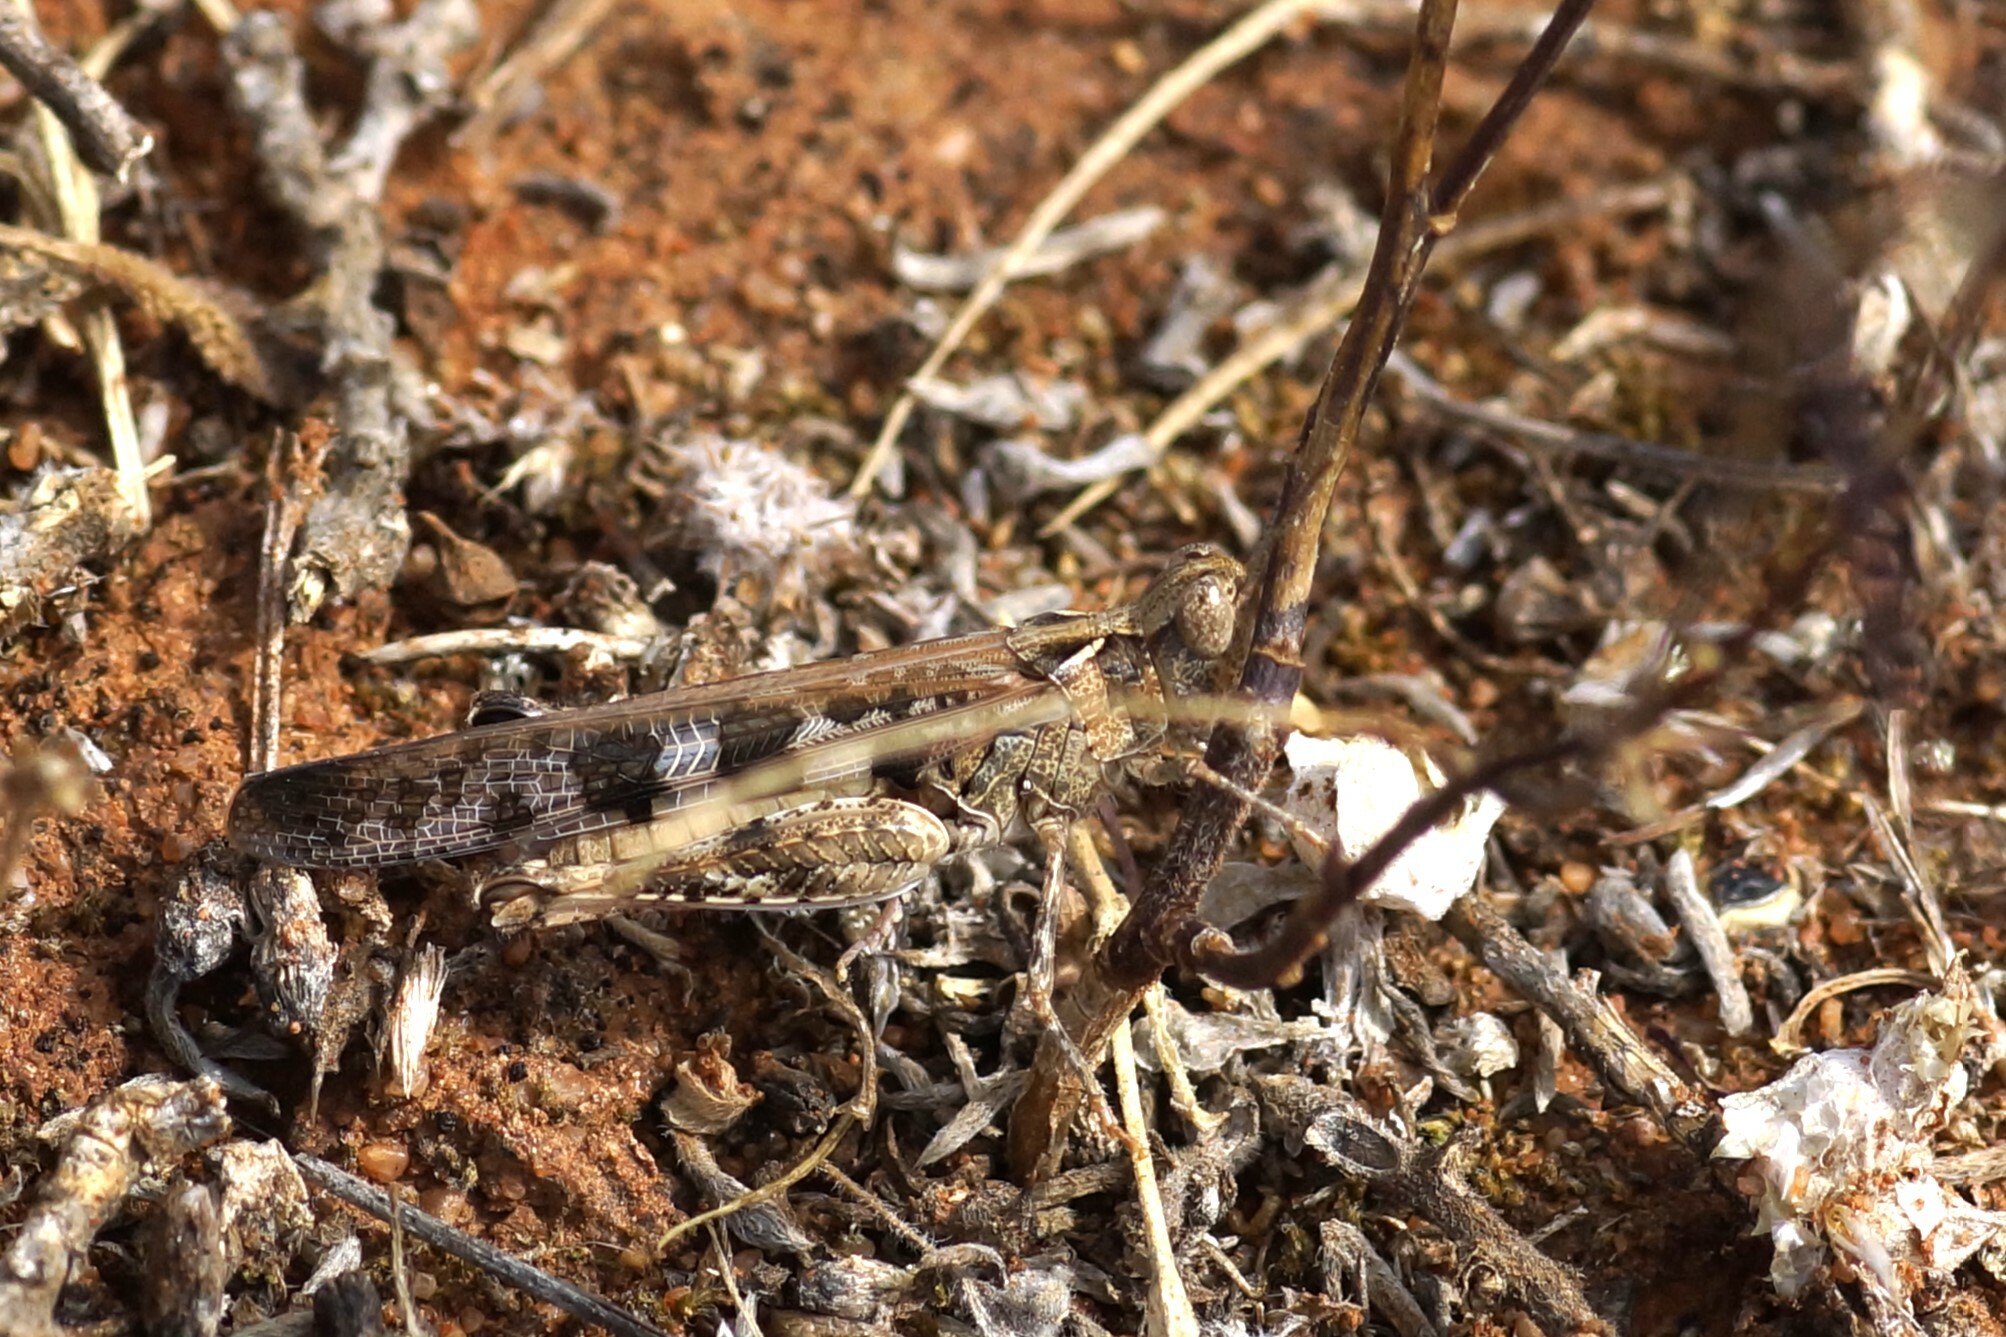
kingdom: Animalia
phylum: Arthropoda
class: Insecta
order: Orthoptera
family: Acrididae
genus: Chortoicetes
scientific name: Chortoicetes terminifera
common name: Australian plague locust
